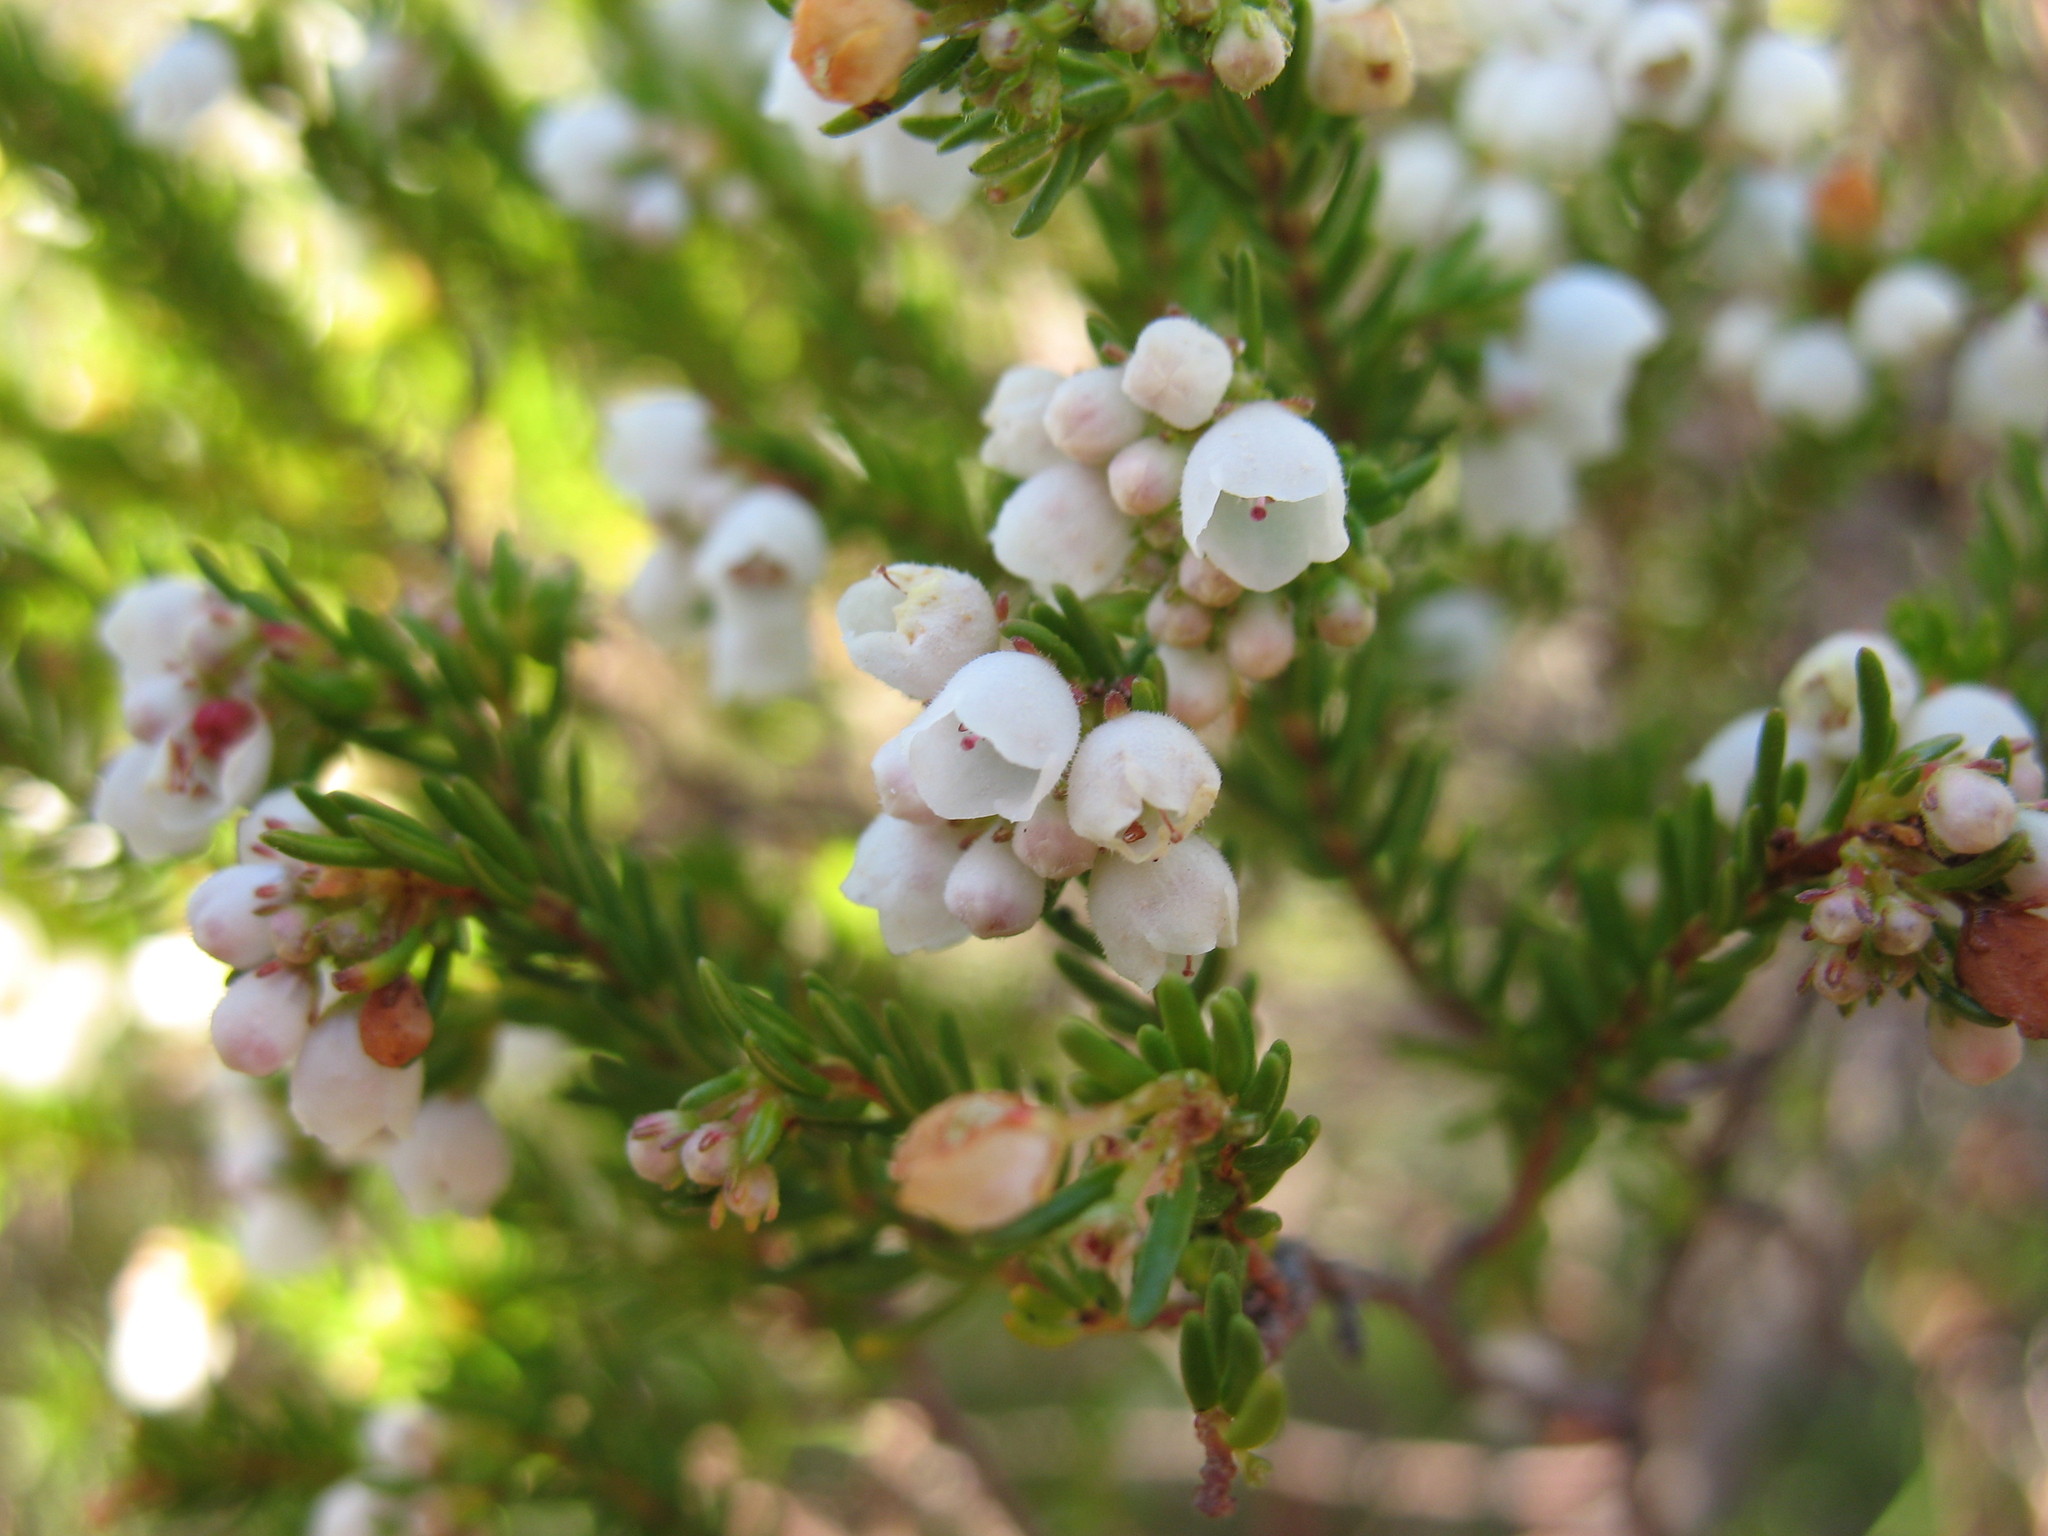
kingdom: Plantae
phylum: Tracheophyta
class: Magnoliopsida
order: Ericales
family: Ericaceae
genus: Erica
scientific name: Erica subdivaricata
